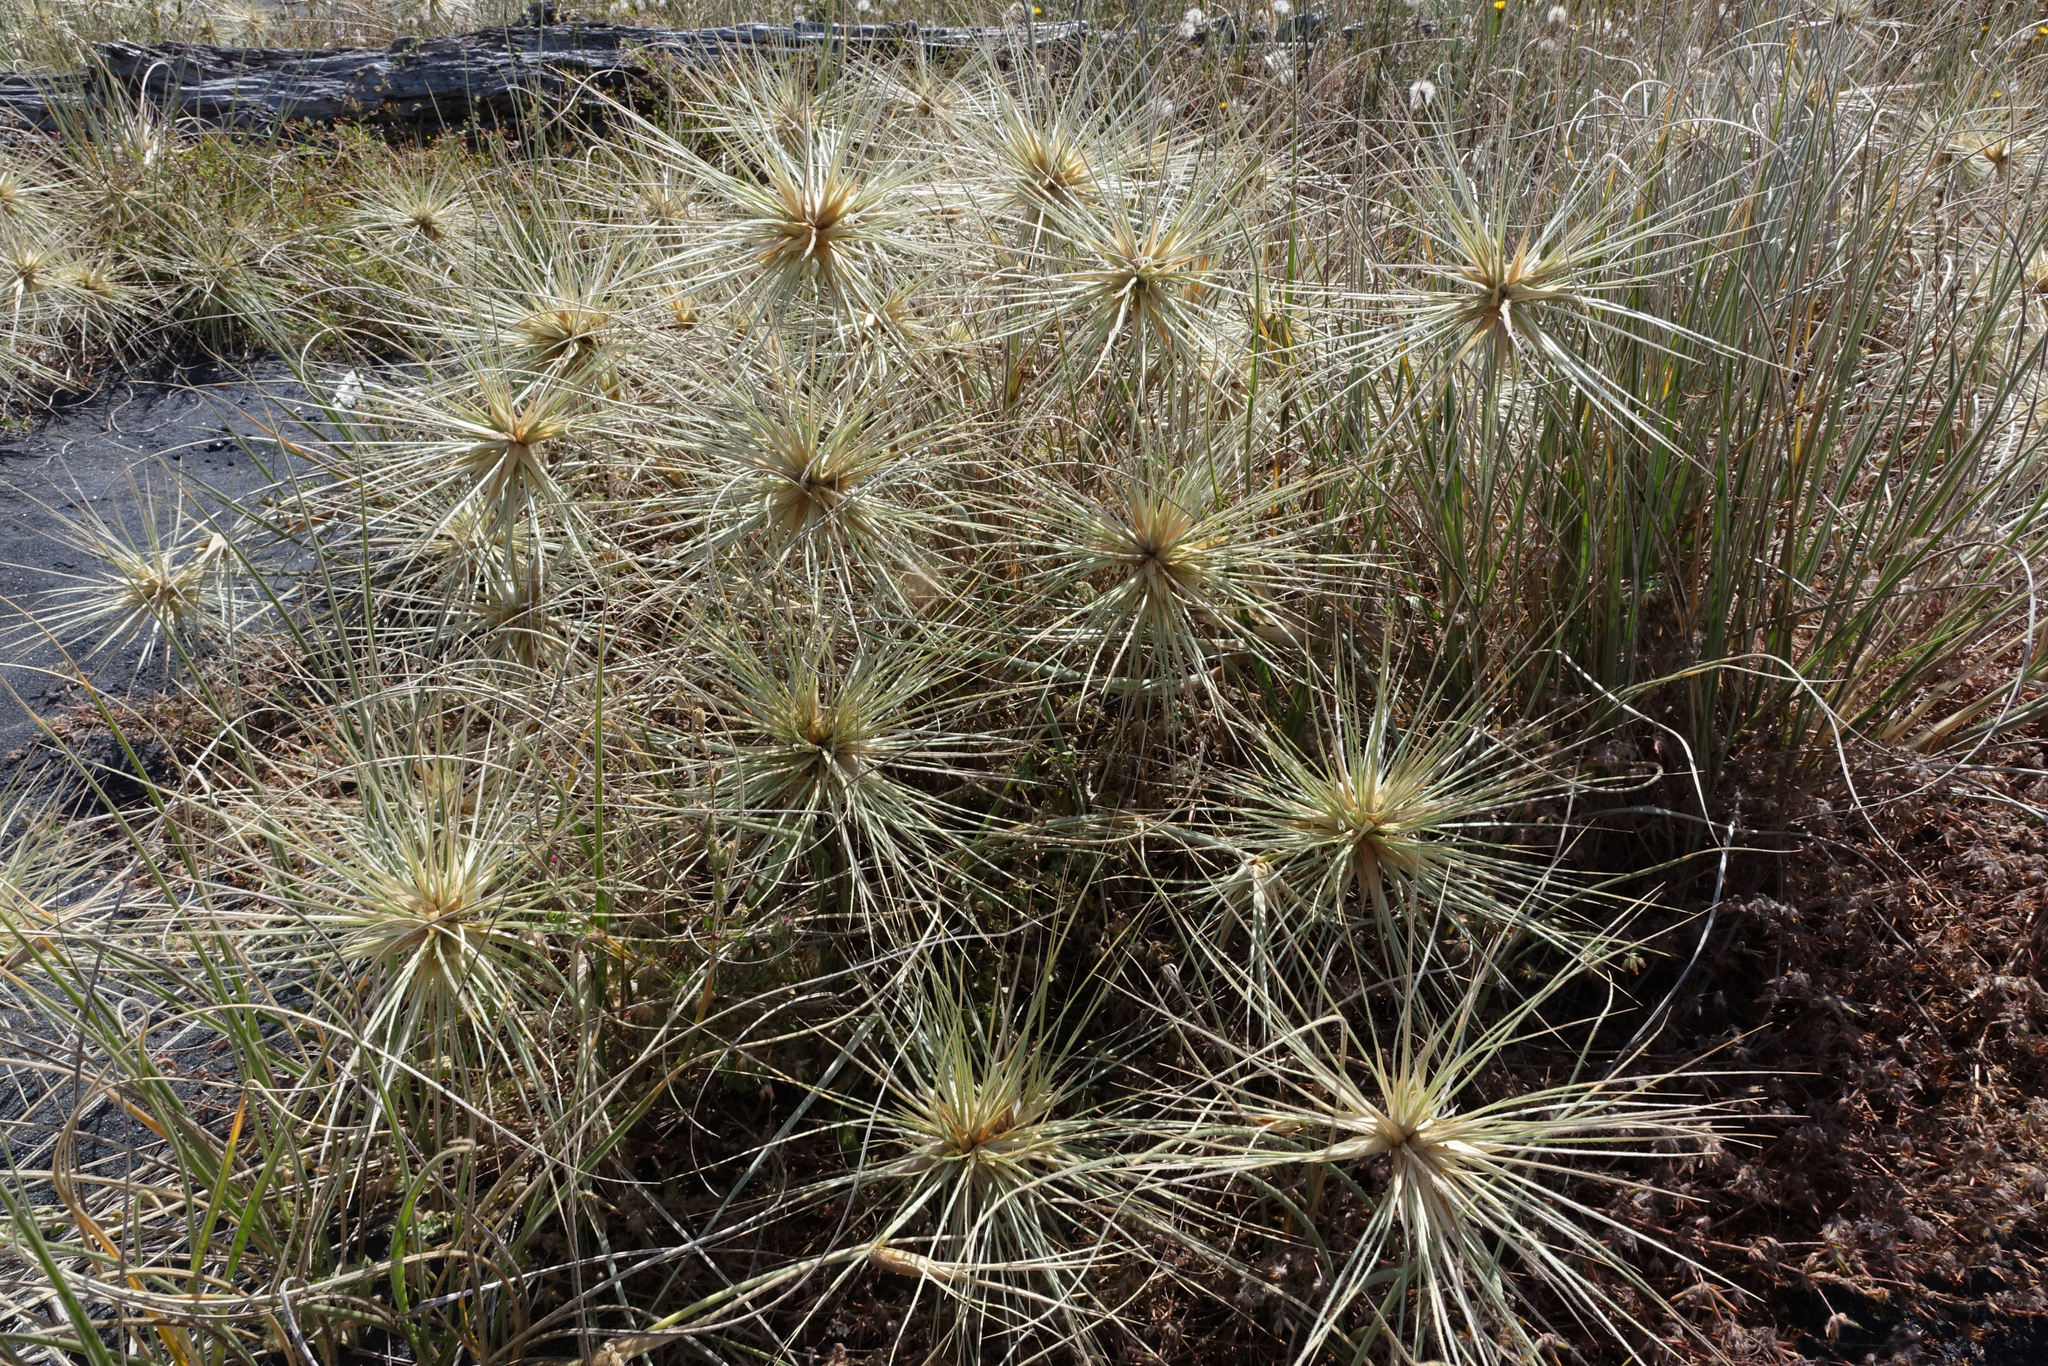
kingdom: Plantae
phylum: Tracheophyta
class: Liliopsida
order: Poales
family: Poaceae
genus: Spinifex
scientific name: Spinifex sericeus
